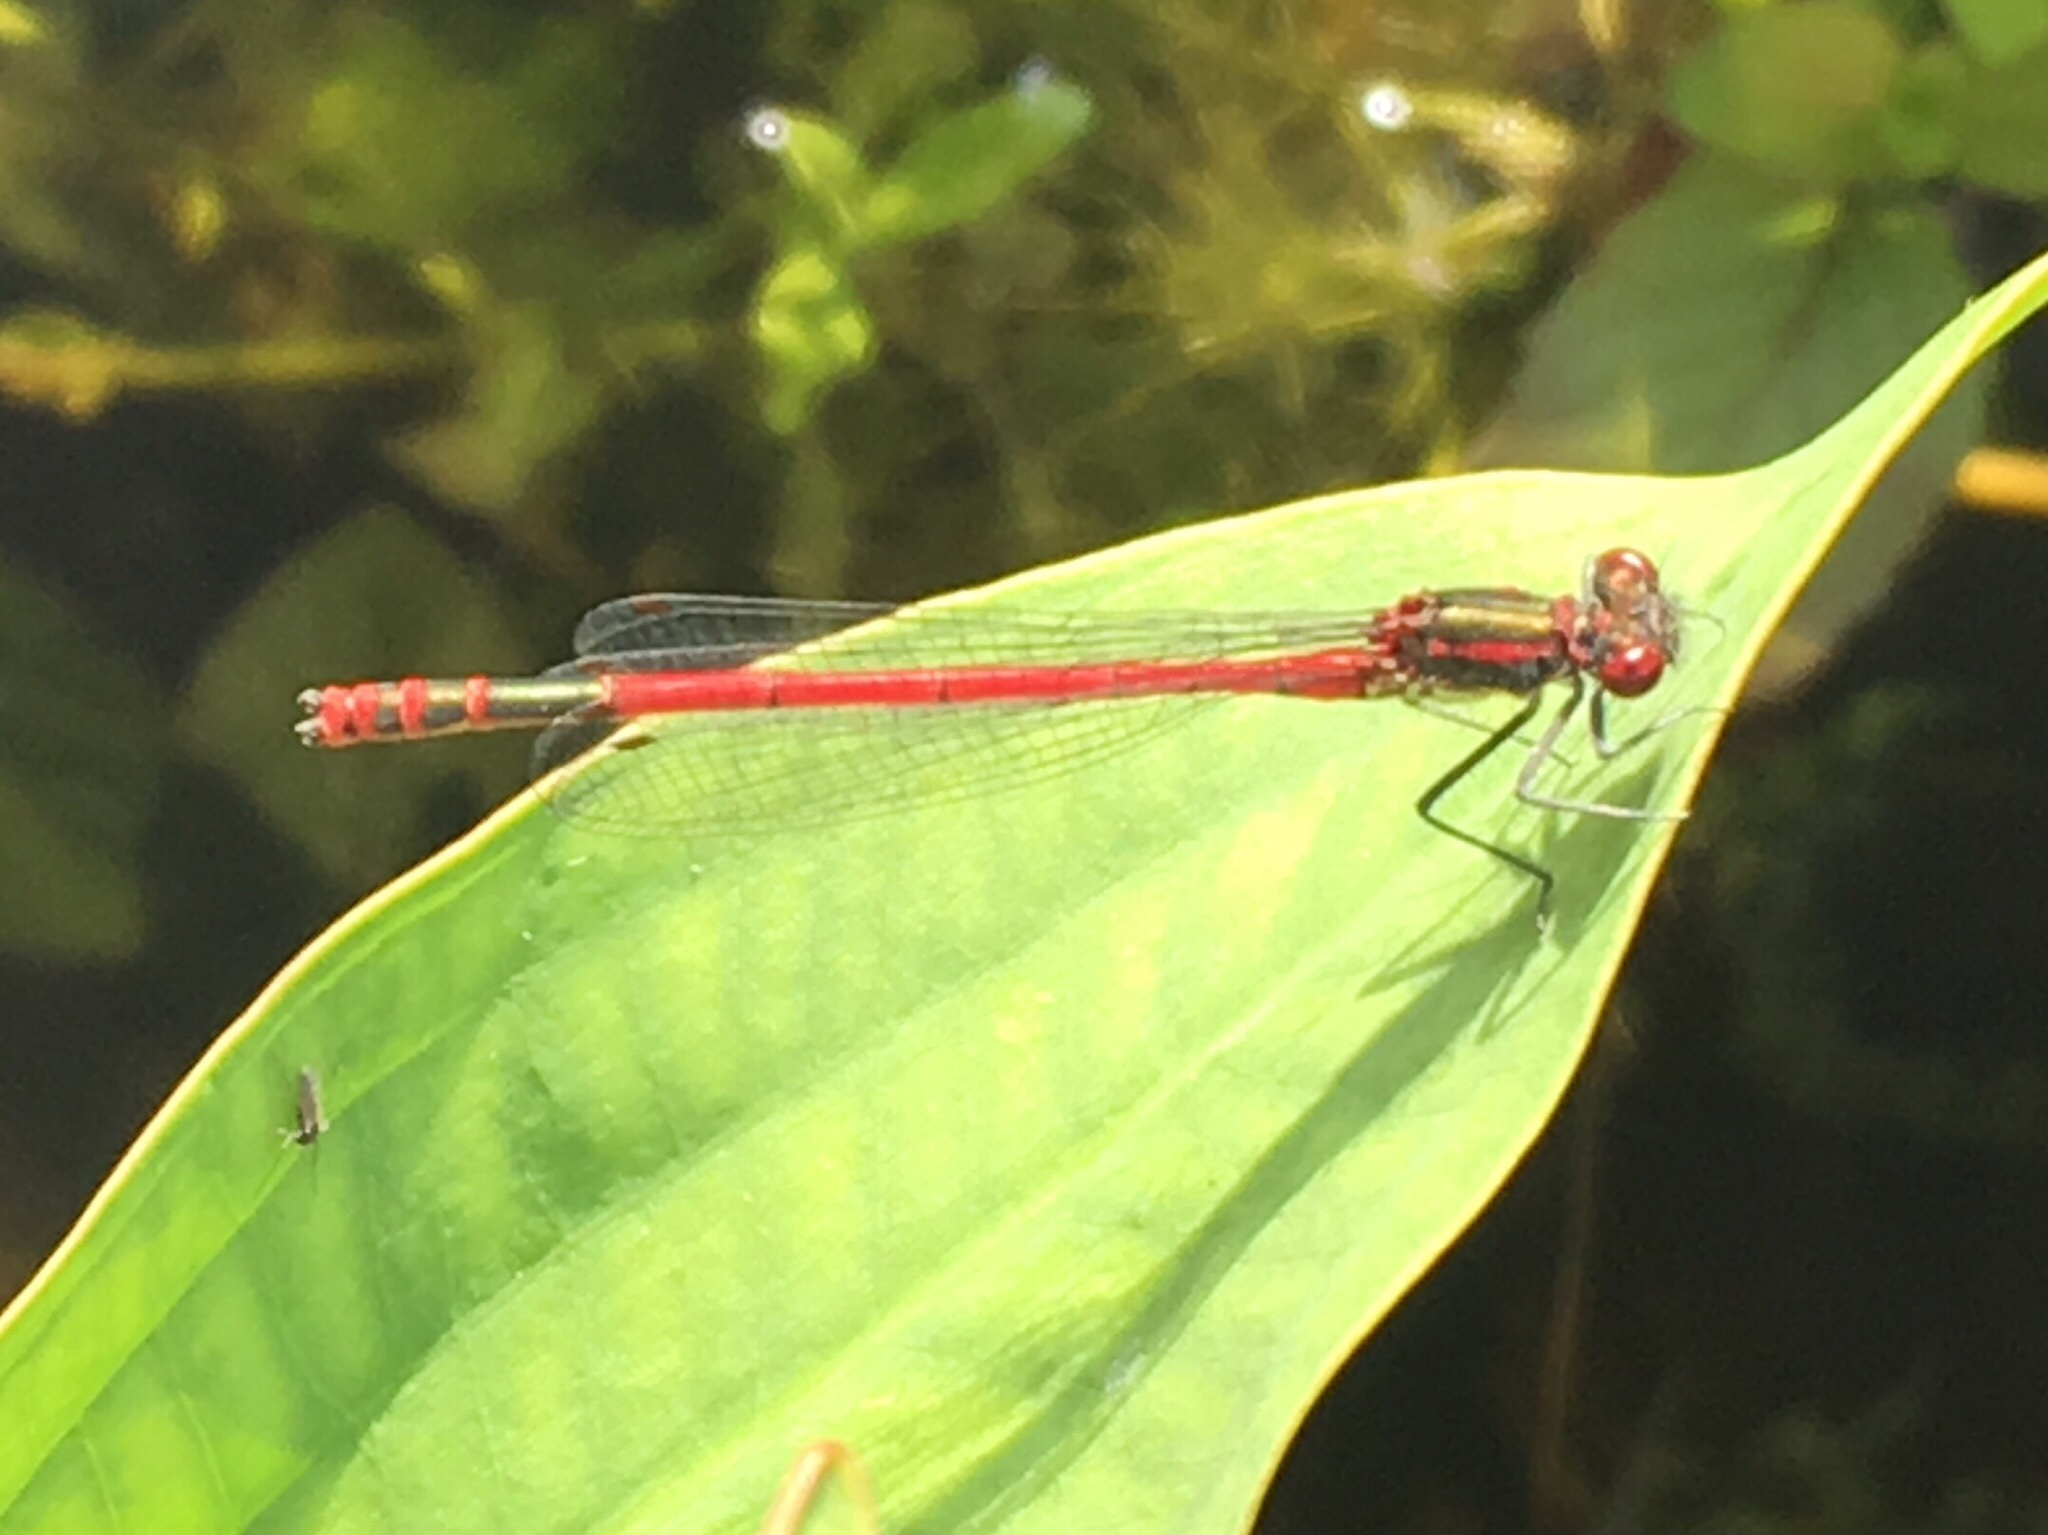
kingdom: Animalia
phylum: Arthropoda
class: Insecta
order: Odonata
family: Coenagrionidae
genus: Pyrrhosoma
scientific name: Pyrrhosoma nymphula
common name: Large red damsel
